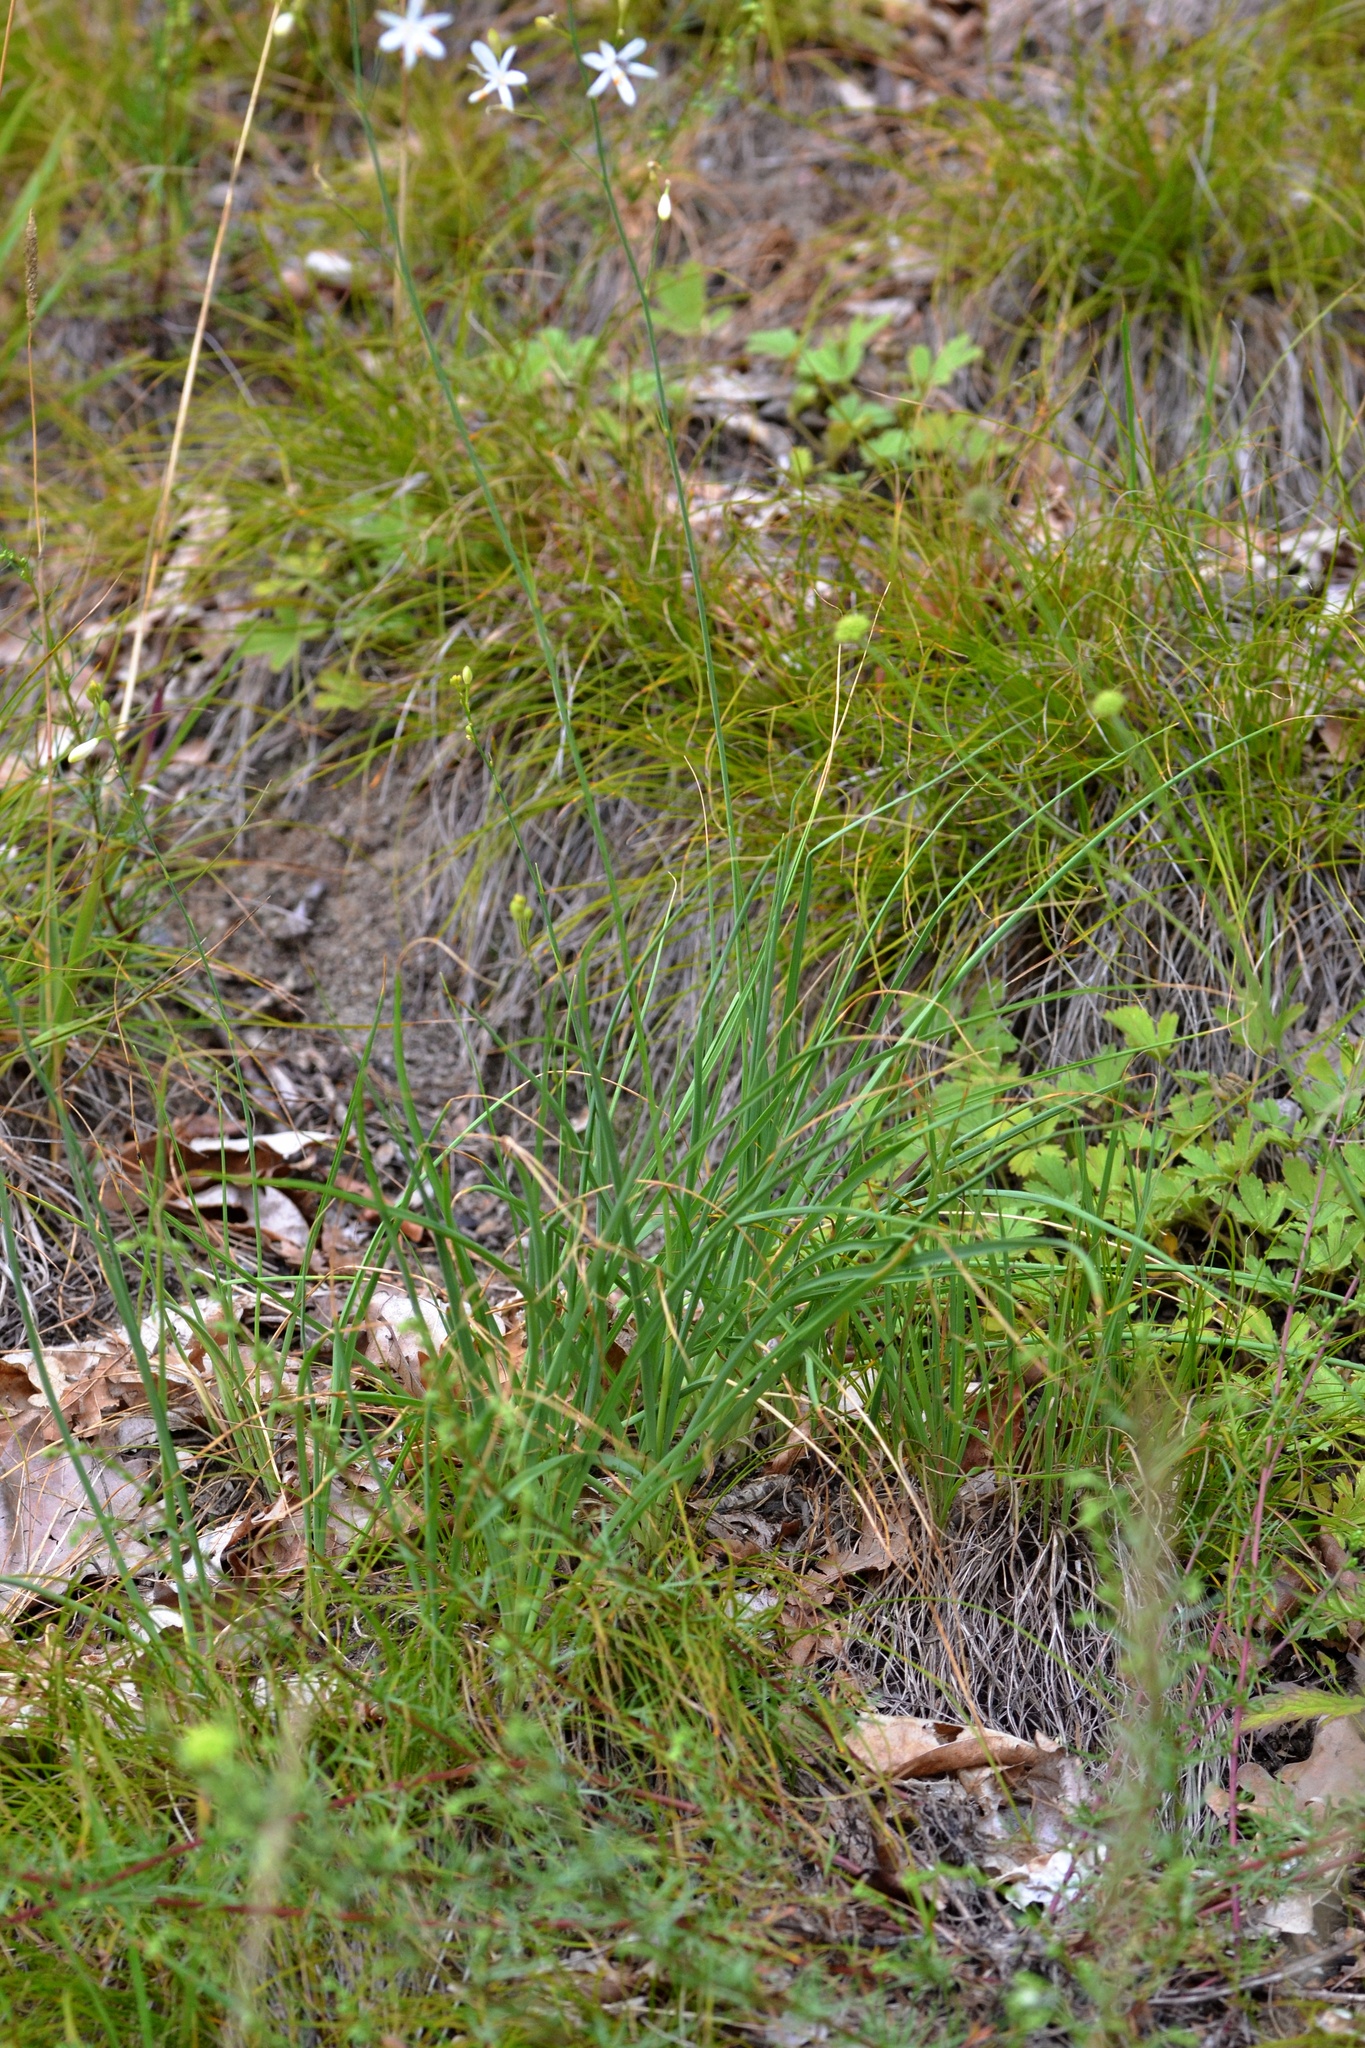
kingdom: Plantae
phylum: Tracheophyta
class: Liliopsida
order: Asparagales
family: Asparagaceae
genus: Anthericum
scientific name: Anthericum ramosum
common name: Branched st. bernard's-lily
